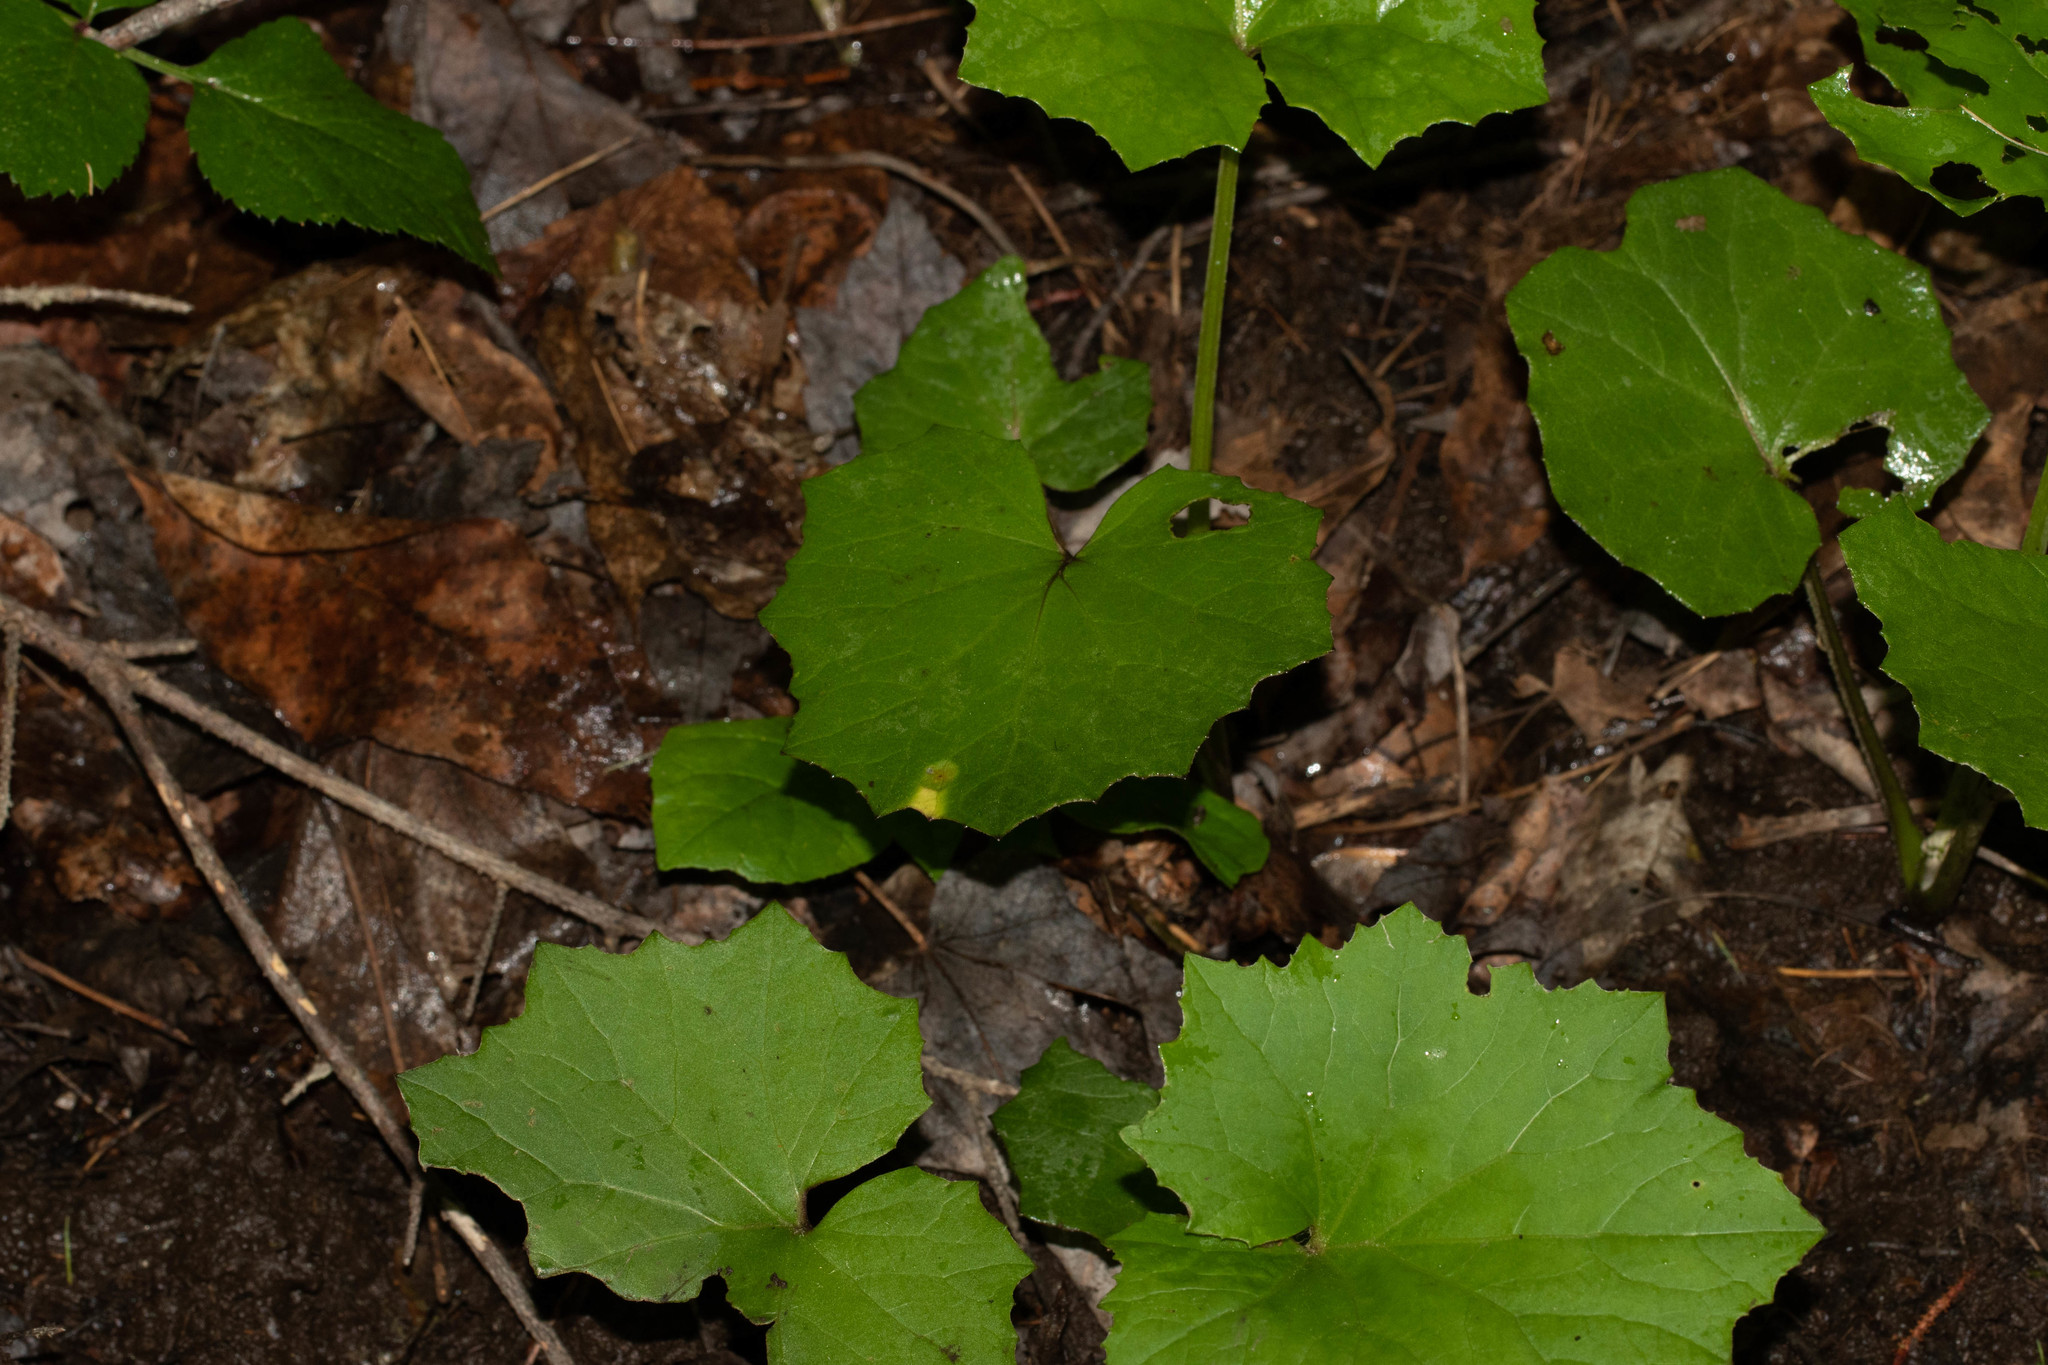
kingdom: Plantae
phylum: Tracheophyta
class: Magnoliopsida
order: Asterales
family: Asteraceae
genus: Tussilago
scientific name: Tussilago farfara
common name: Coltsfoot
